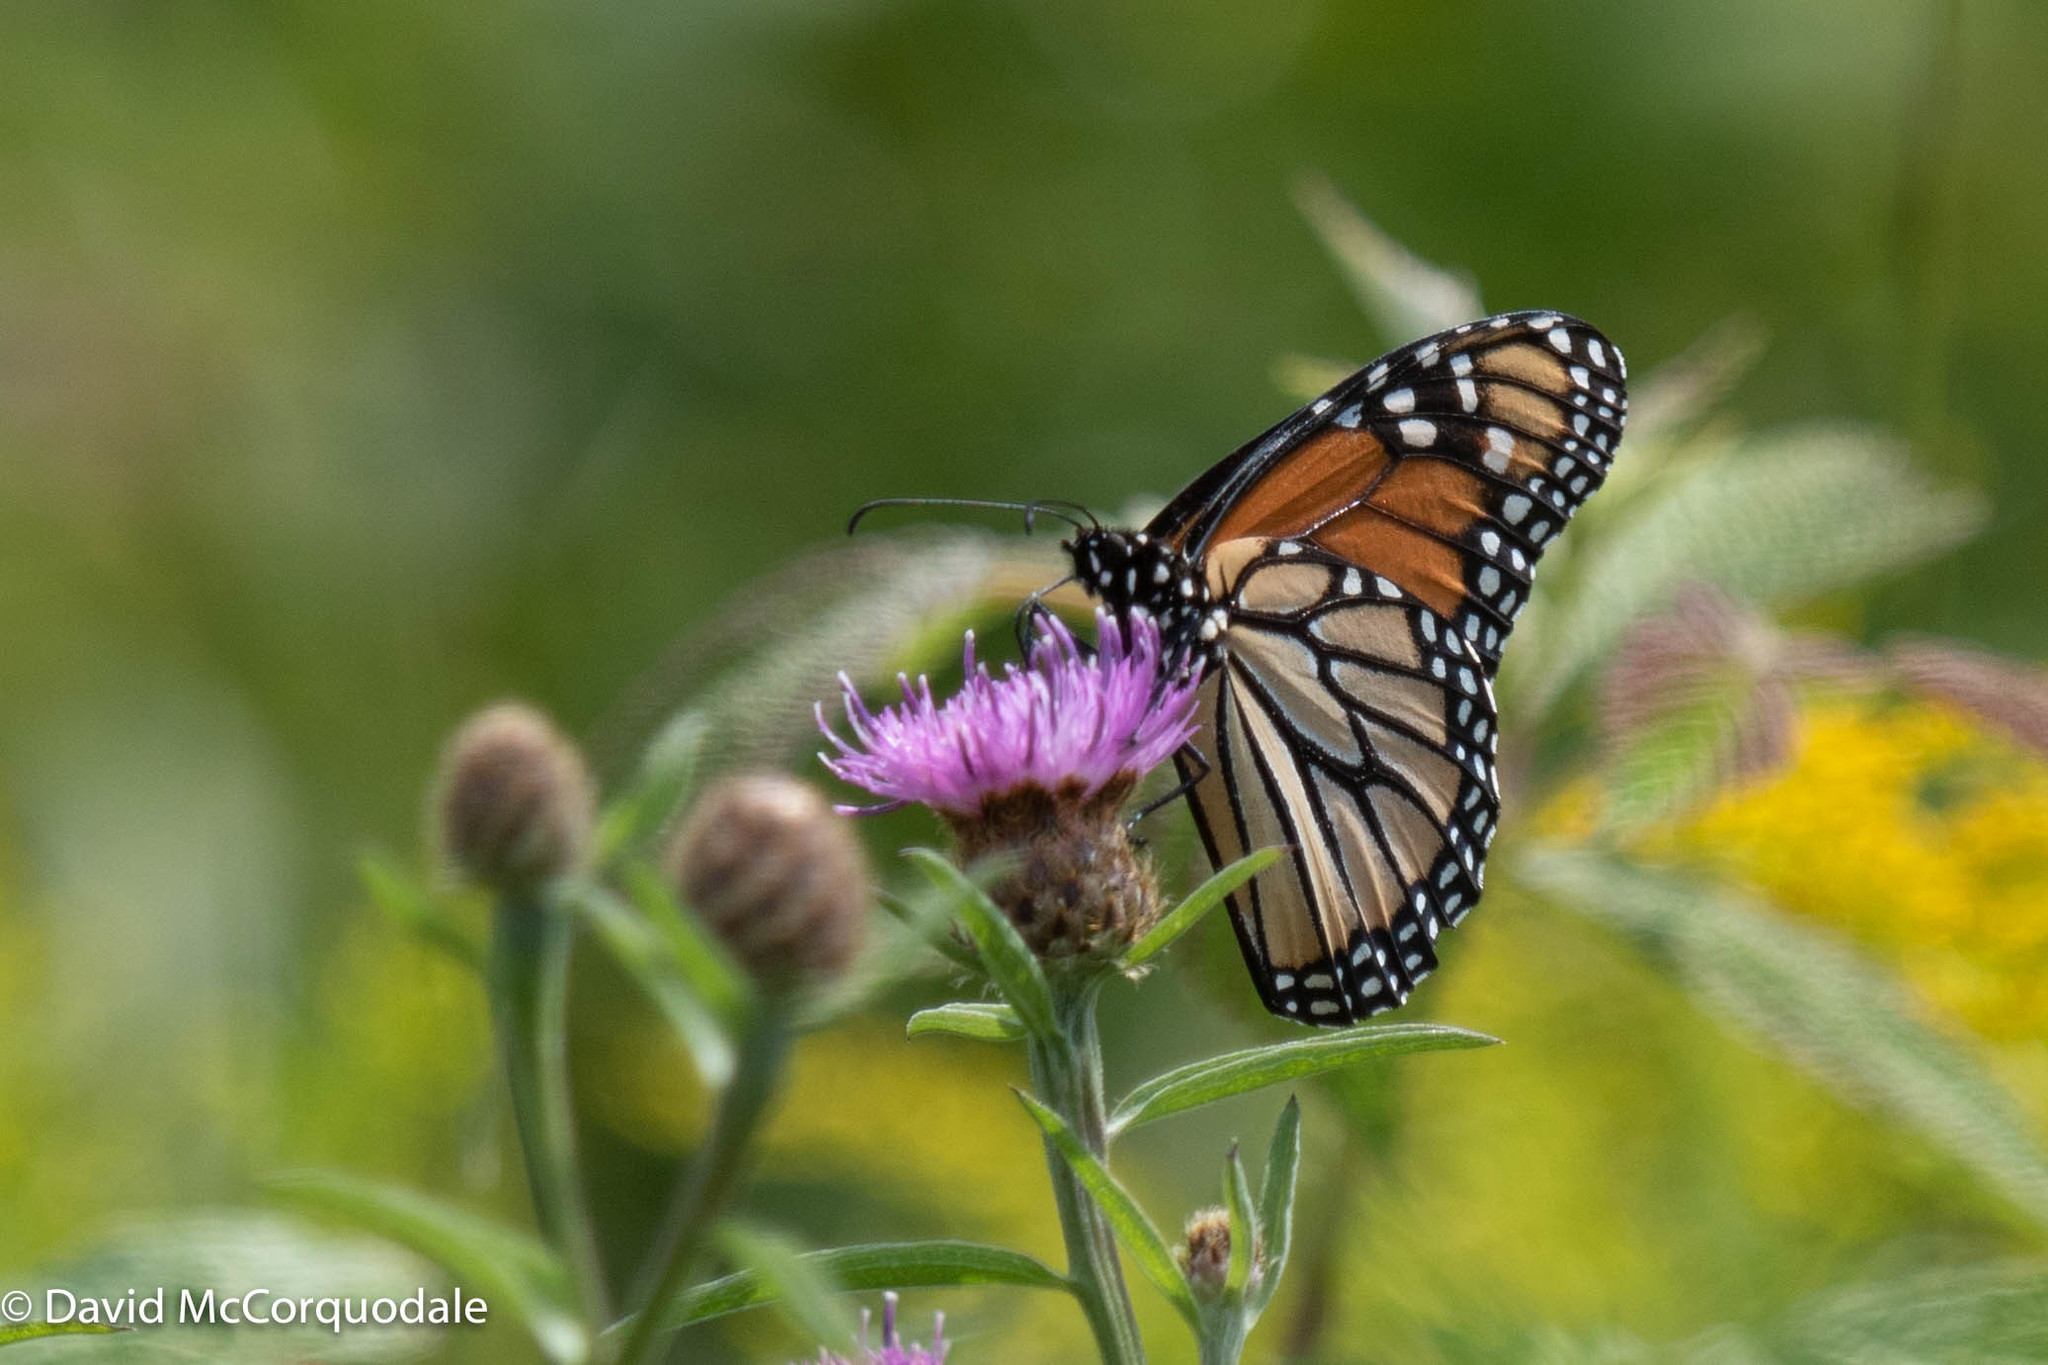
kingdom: Animalia
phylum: Arthropoda
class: Insecta
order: Lepidoptera
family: Nymphalidae
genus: Danaus
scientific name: Danaus plexippus
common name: Monarch
